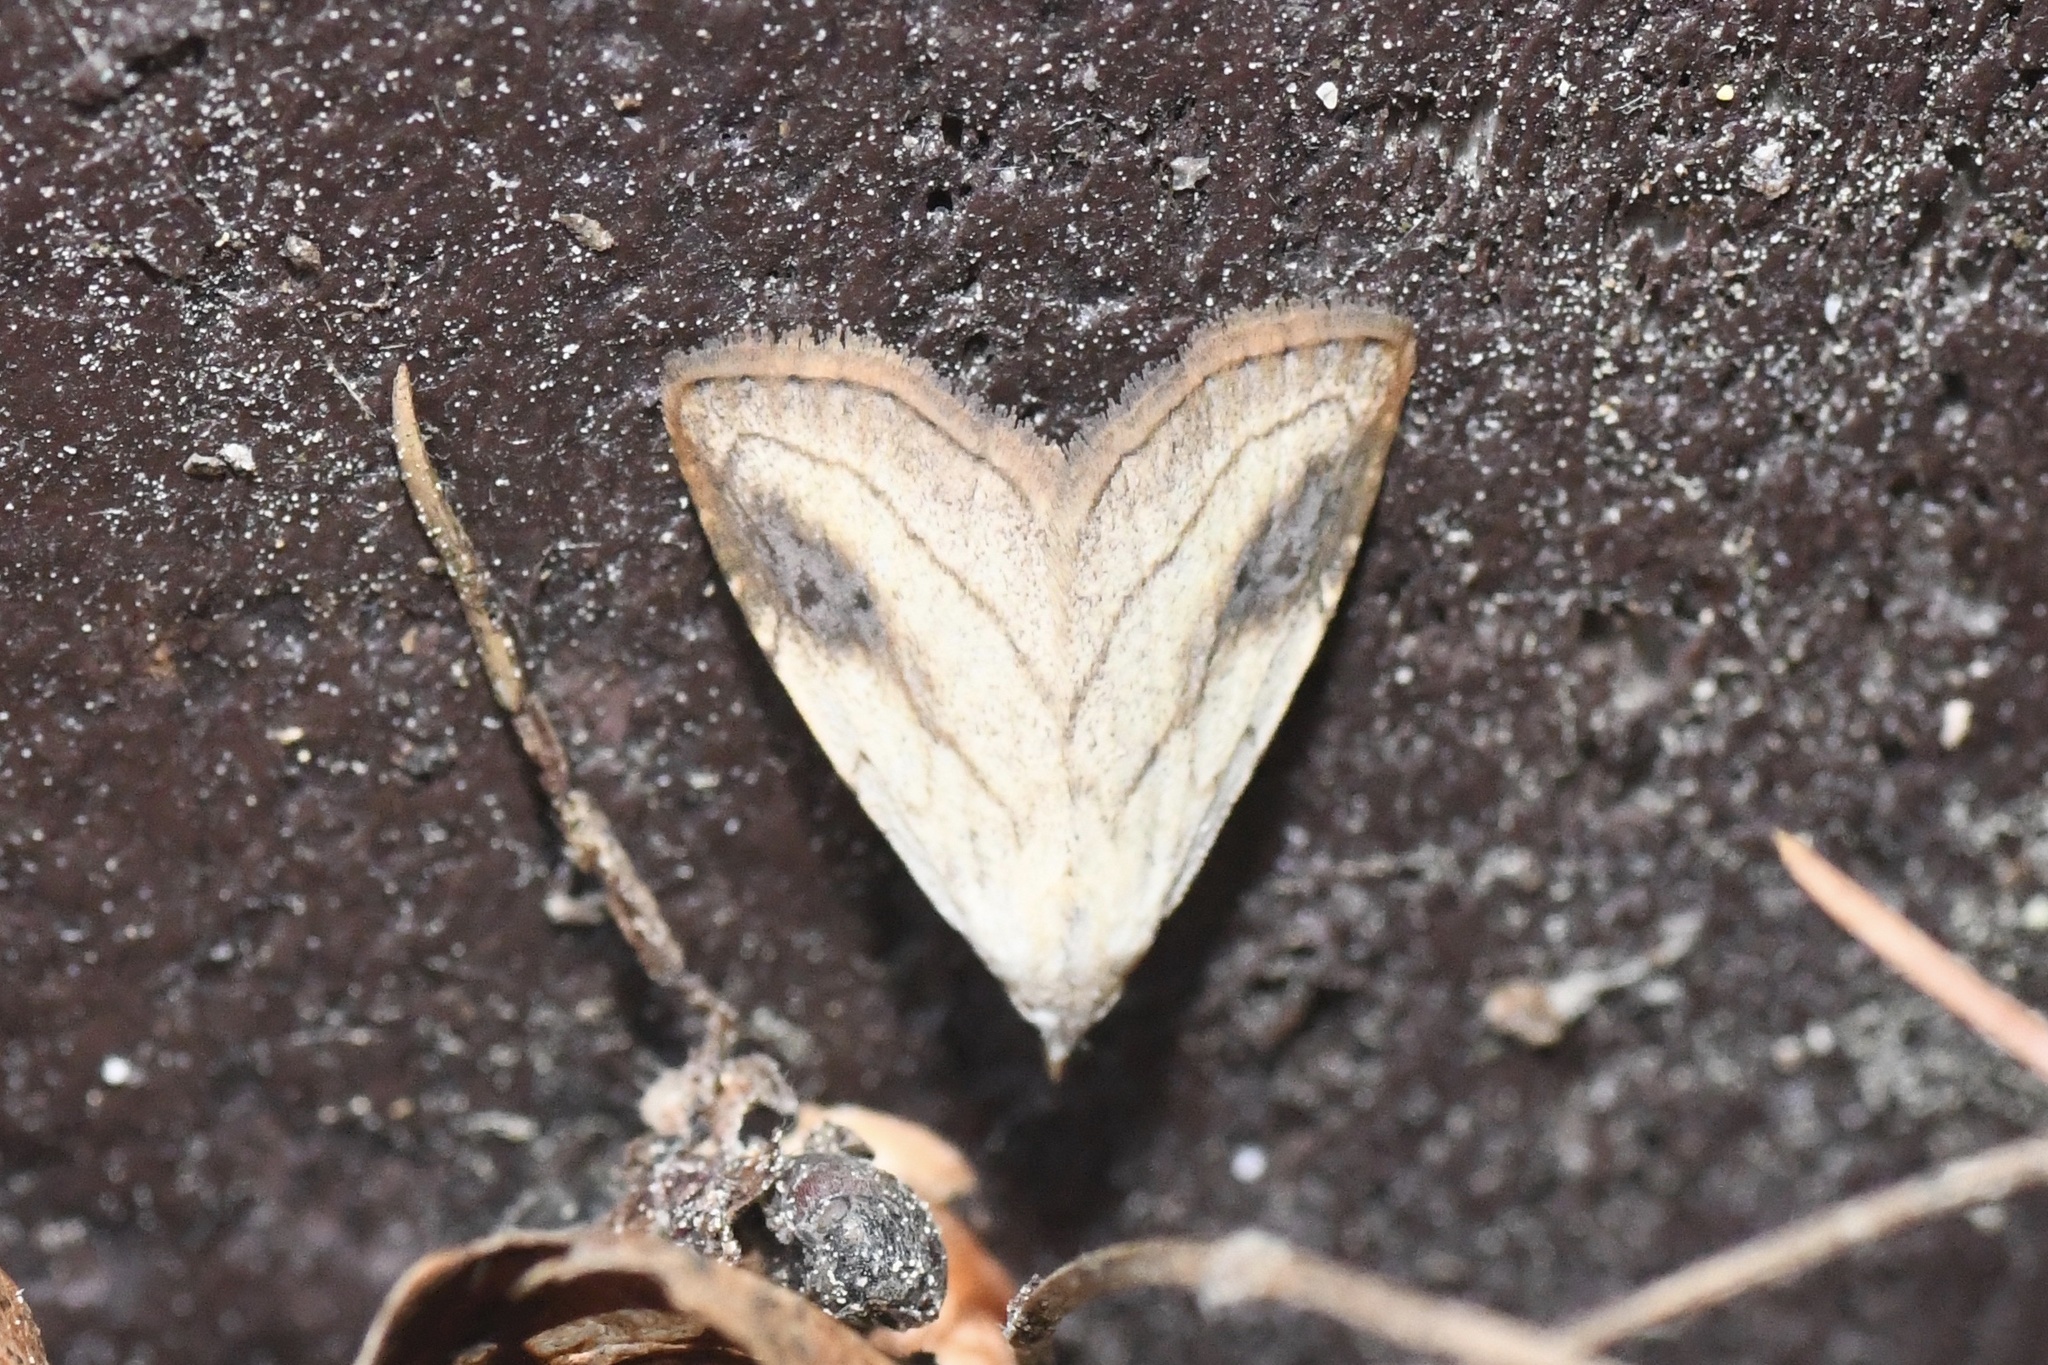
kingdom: Animalia
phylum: Arthropoda
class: Insecta
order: Lepidoptera
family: Erebidae
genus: Rivula
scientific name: Rivula propinqualis
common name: Spotted grass moth
